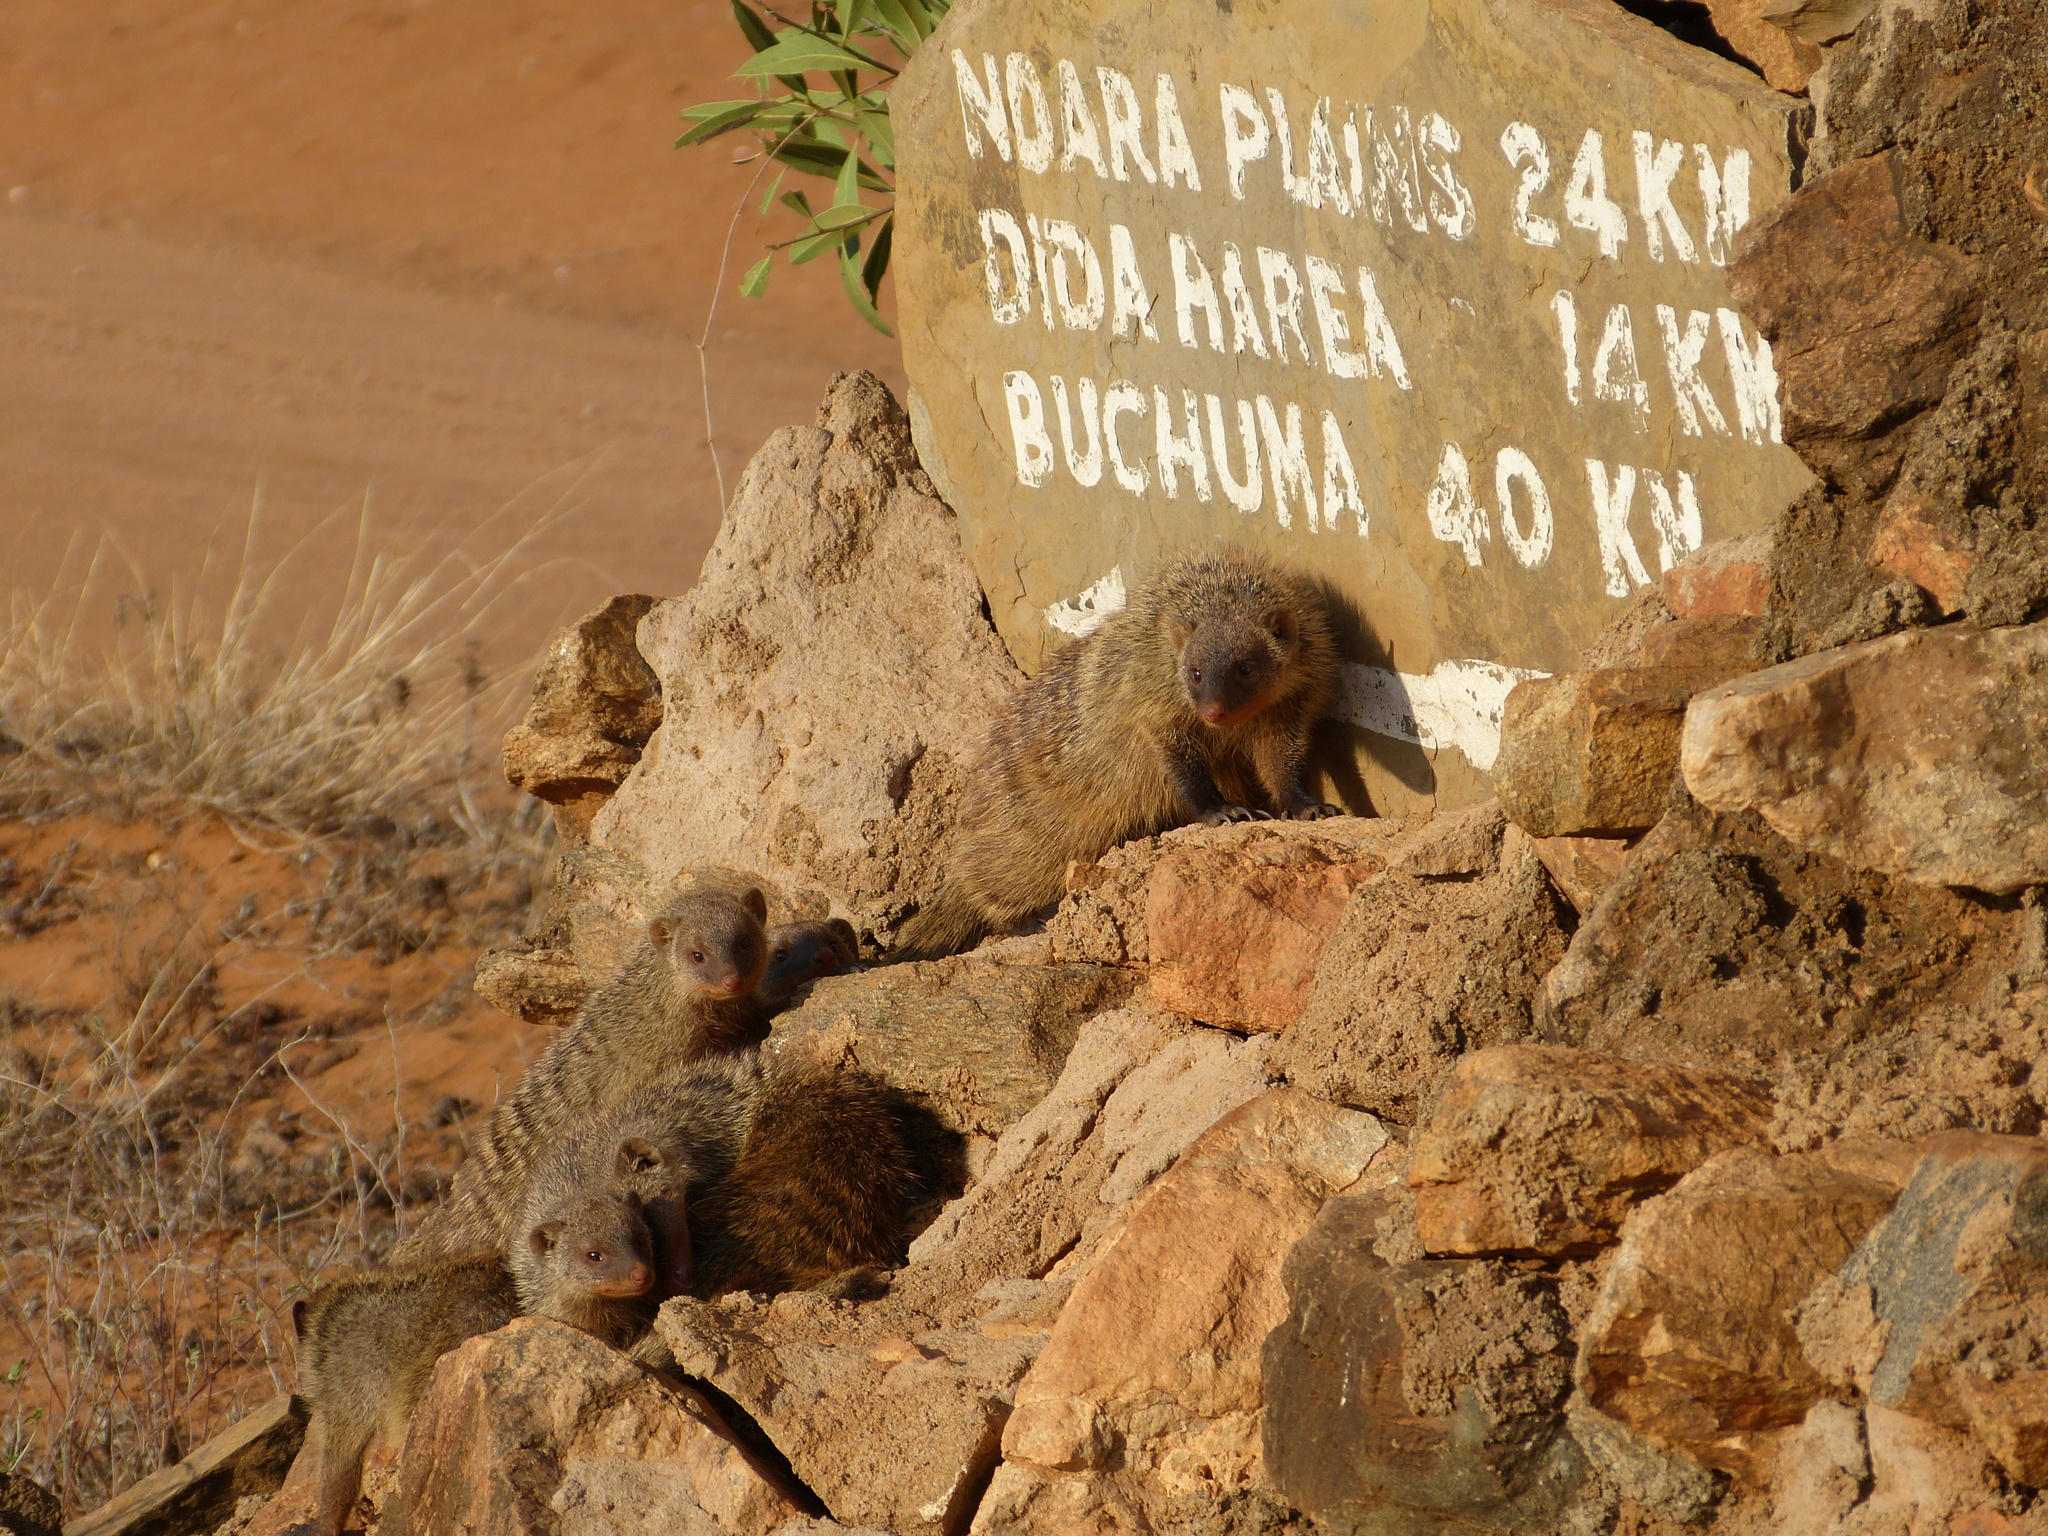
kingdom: Animalia
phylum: Chordata
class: Mammalia
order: Carnivora
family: Herpestidae
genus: Mungos
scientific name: Mungos mungo
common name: Banded mongoose
